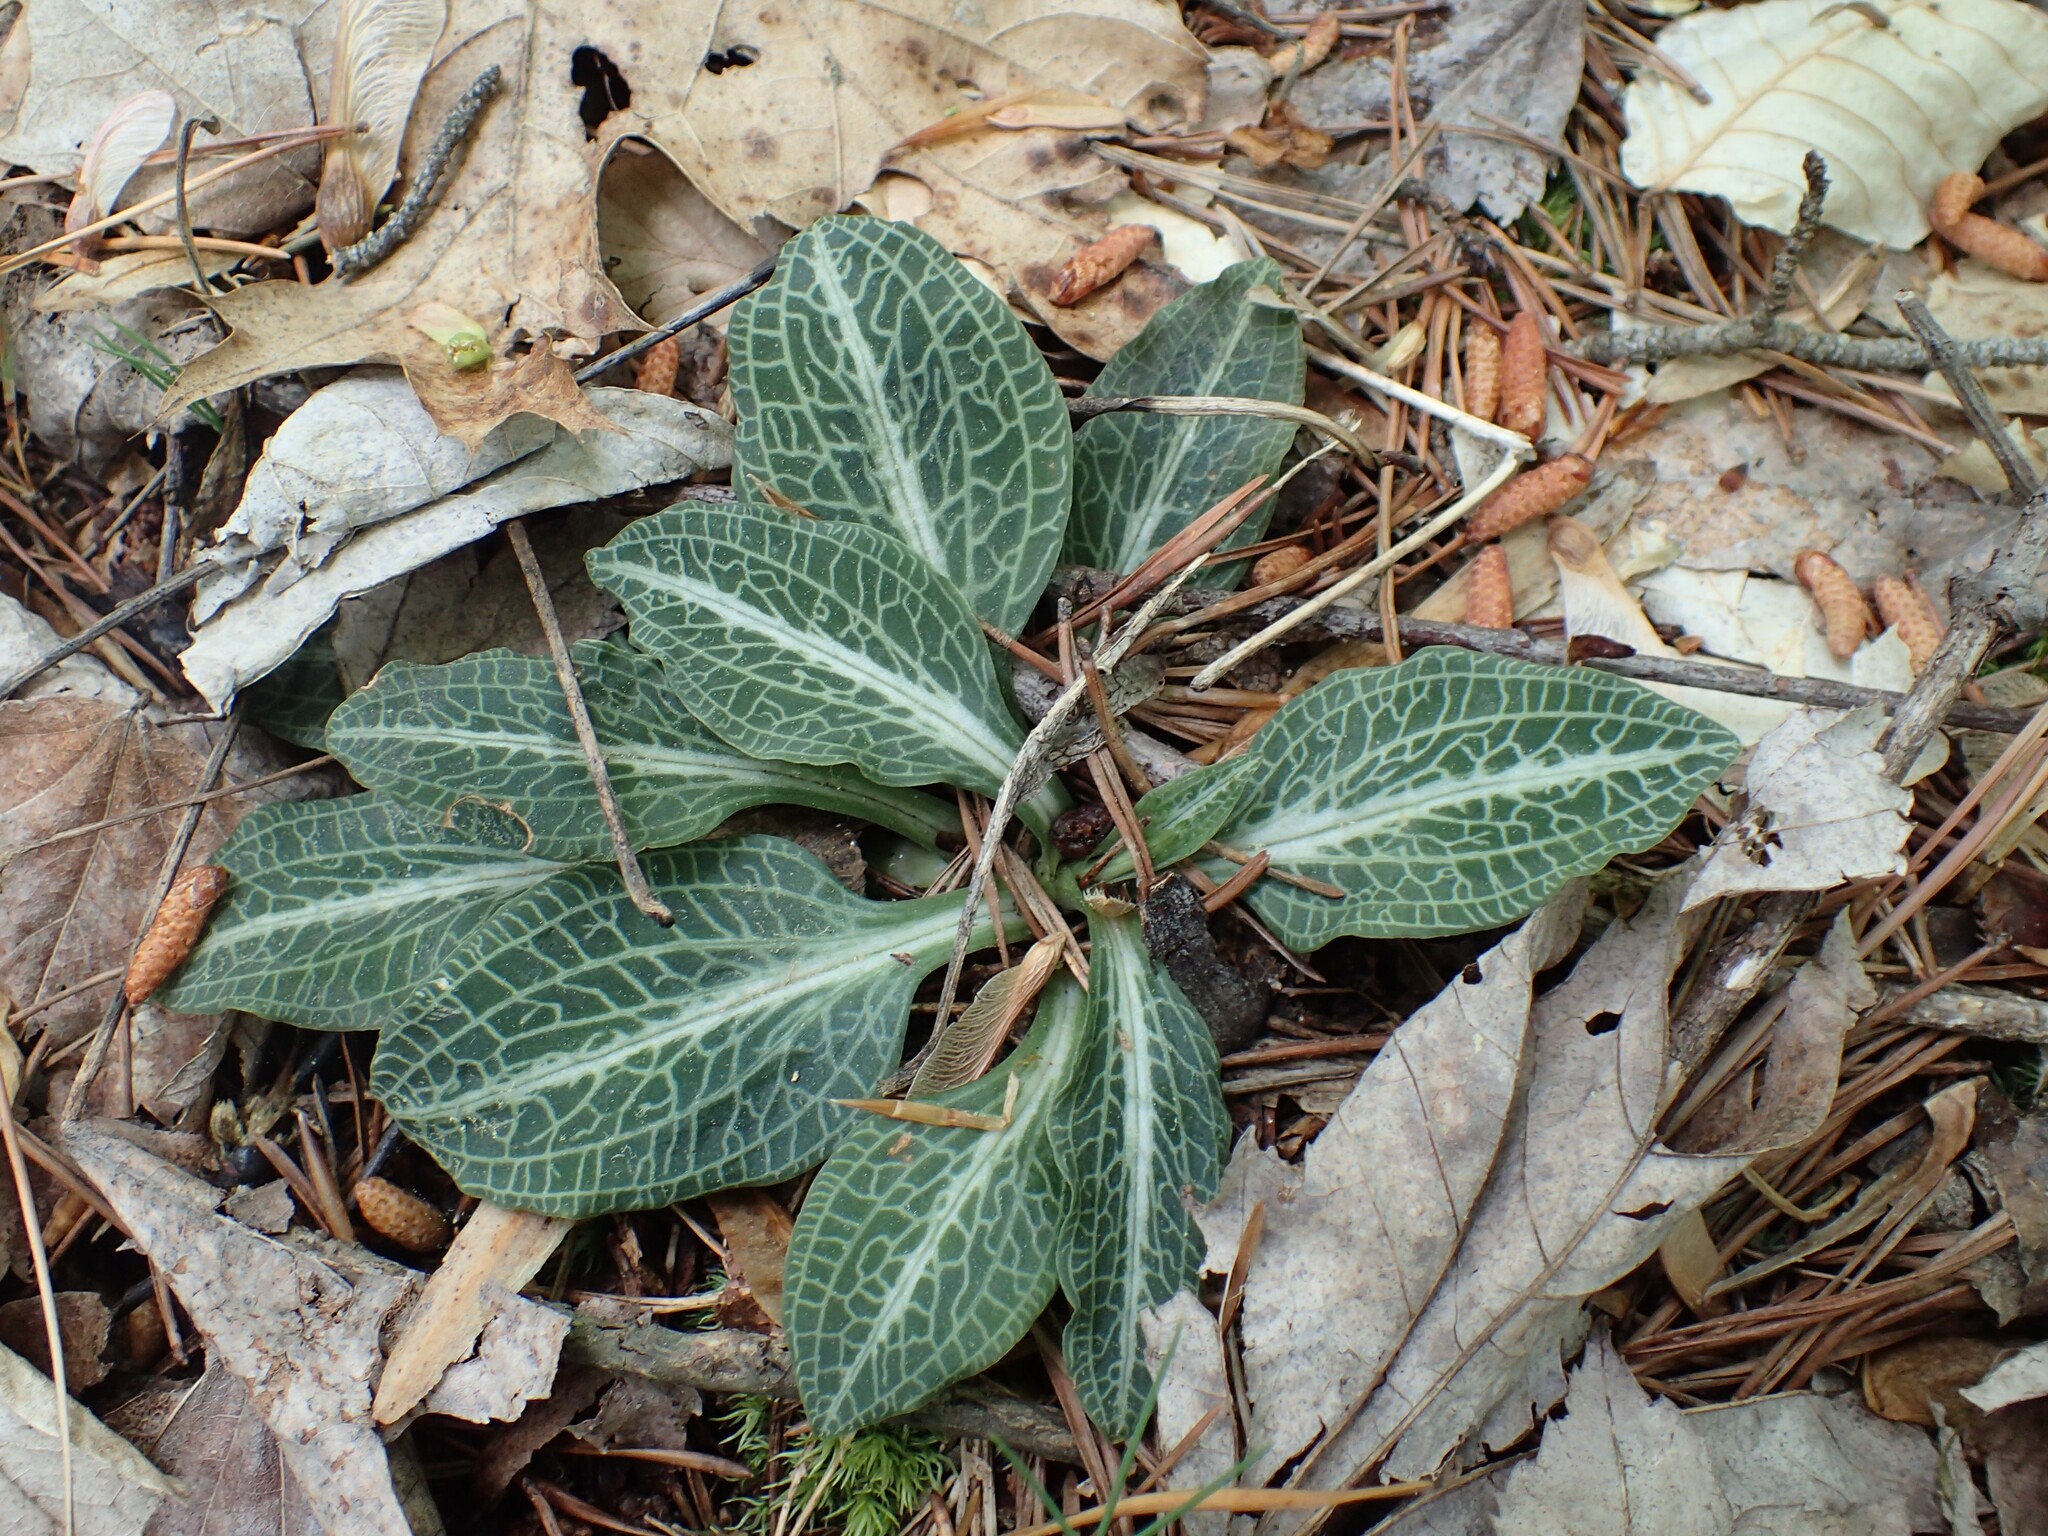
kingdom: Plantae
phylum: Tracheophyta
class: Liliopsida
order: Asparagales
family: Orchidaceae
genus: Goodyera
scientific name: Goodyera pubescens
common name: Downy rattlesnake-plantain
